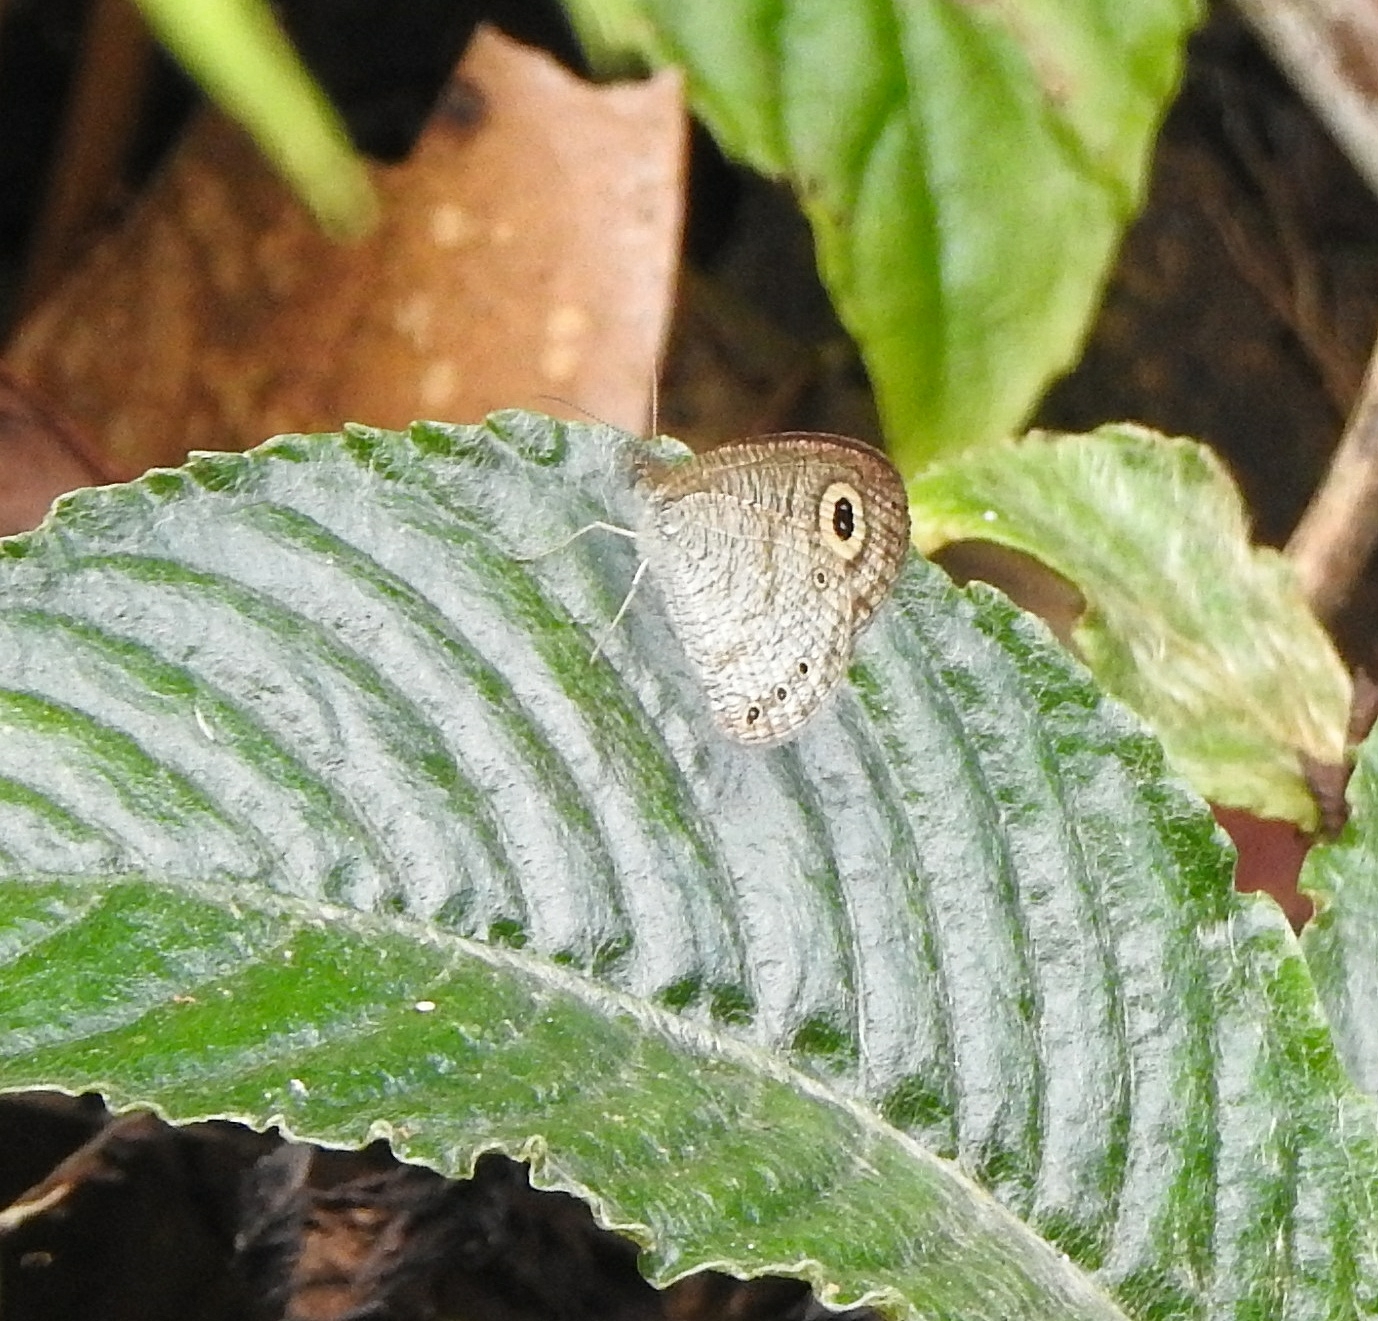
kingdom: Animalia
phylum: Arthropoda
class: Insecta
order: Lepidoptera
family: Nymphalidae
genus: Ypthima
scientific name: Ypthima huebneri
